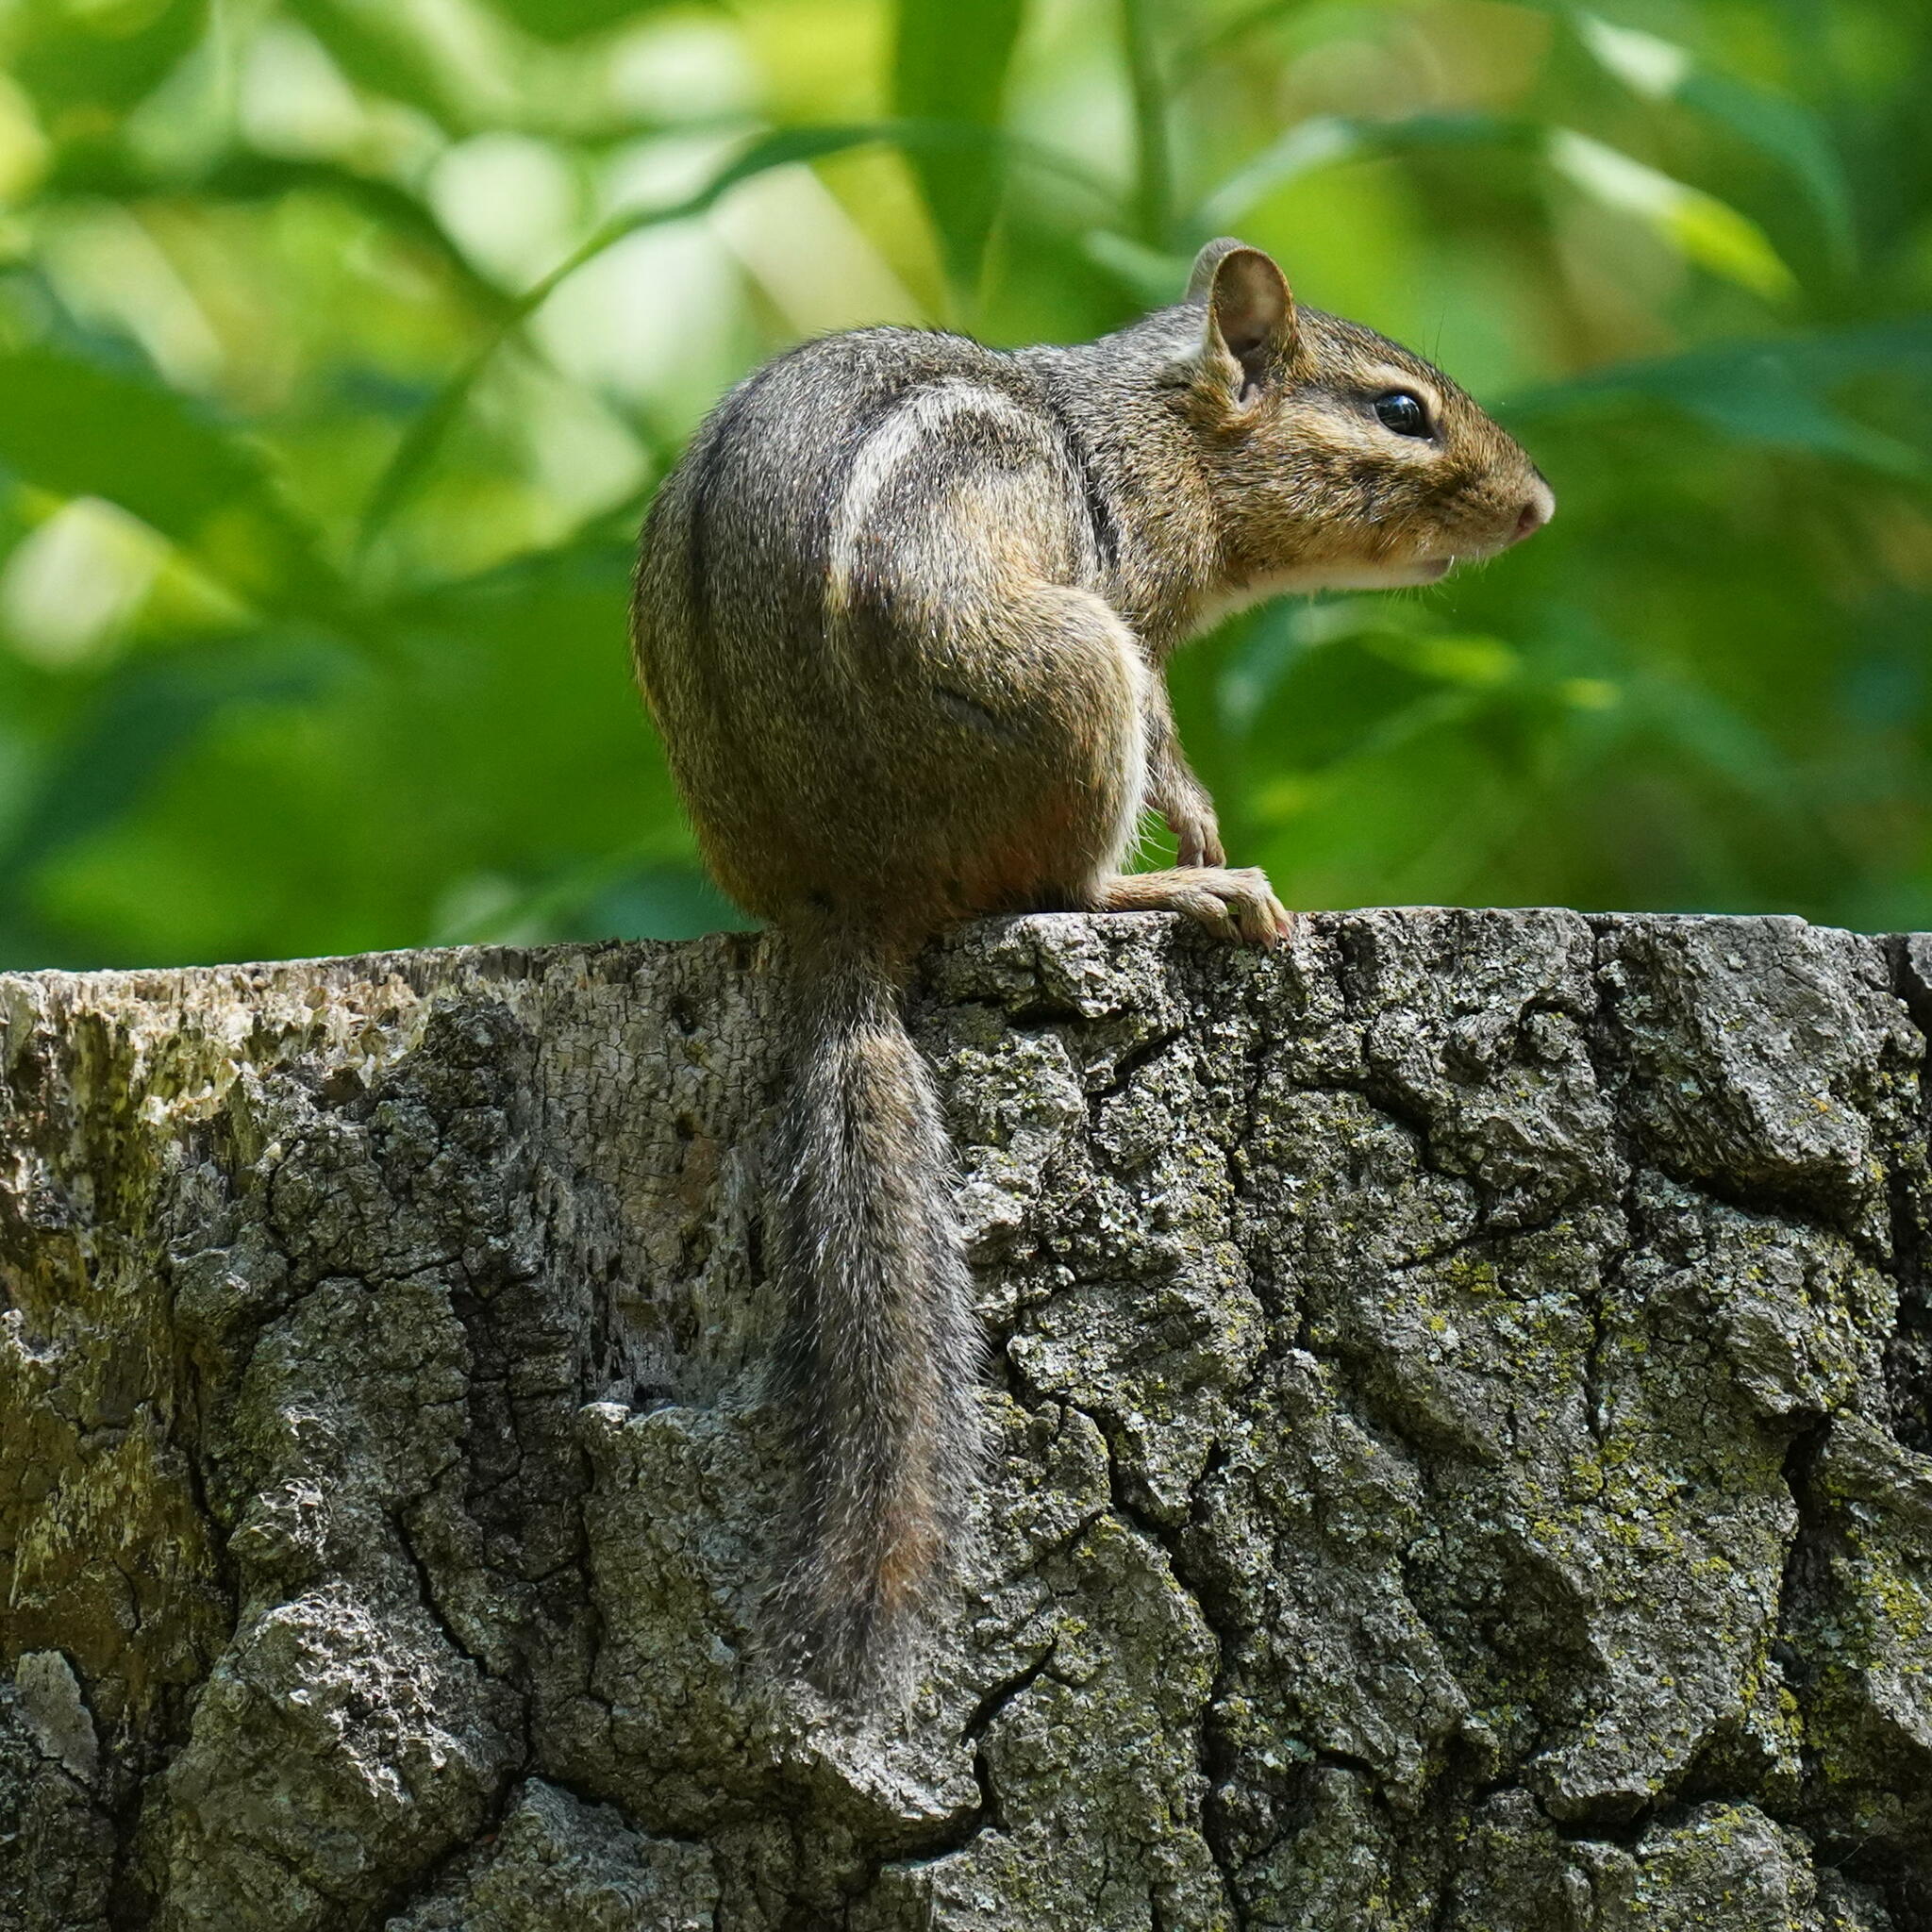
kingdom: Animalia
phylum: Chordata
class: Mammalia
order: Rodentia
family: Sciuridae
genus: Tamias
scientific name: Tamias striatus
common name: Eastern chipmunk
